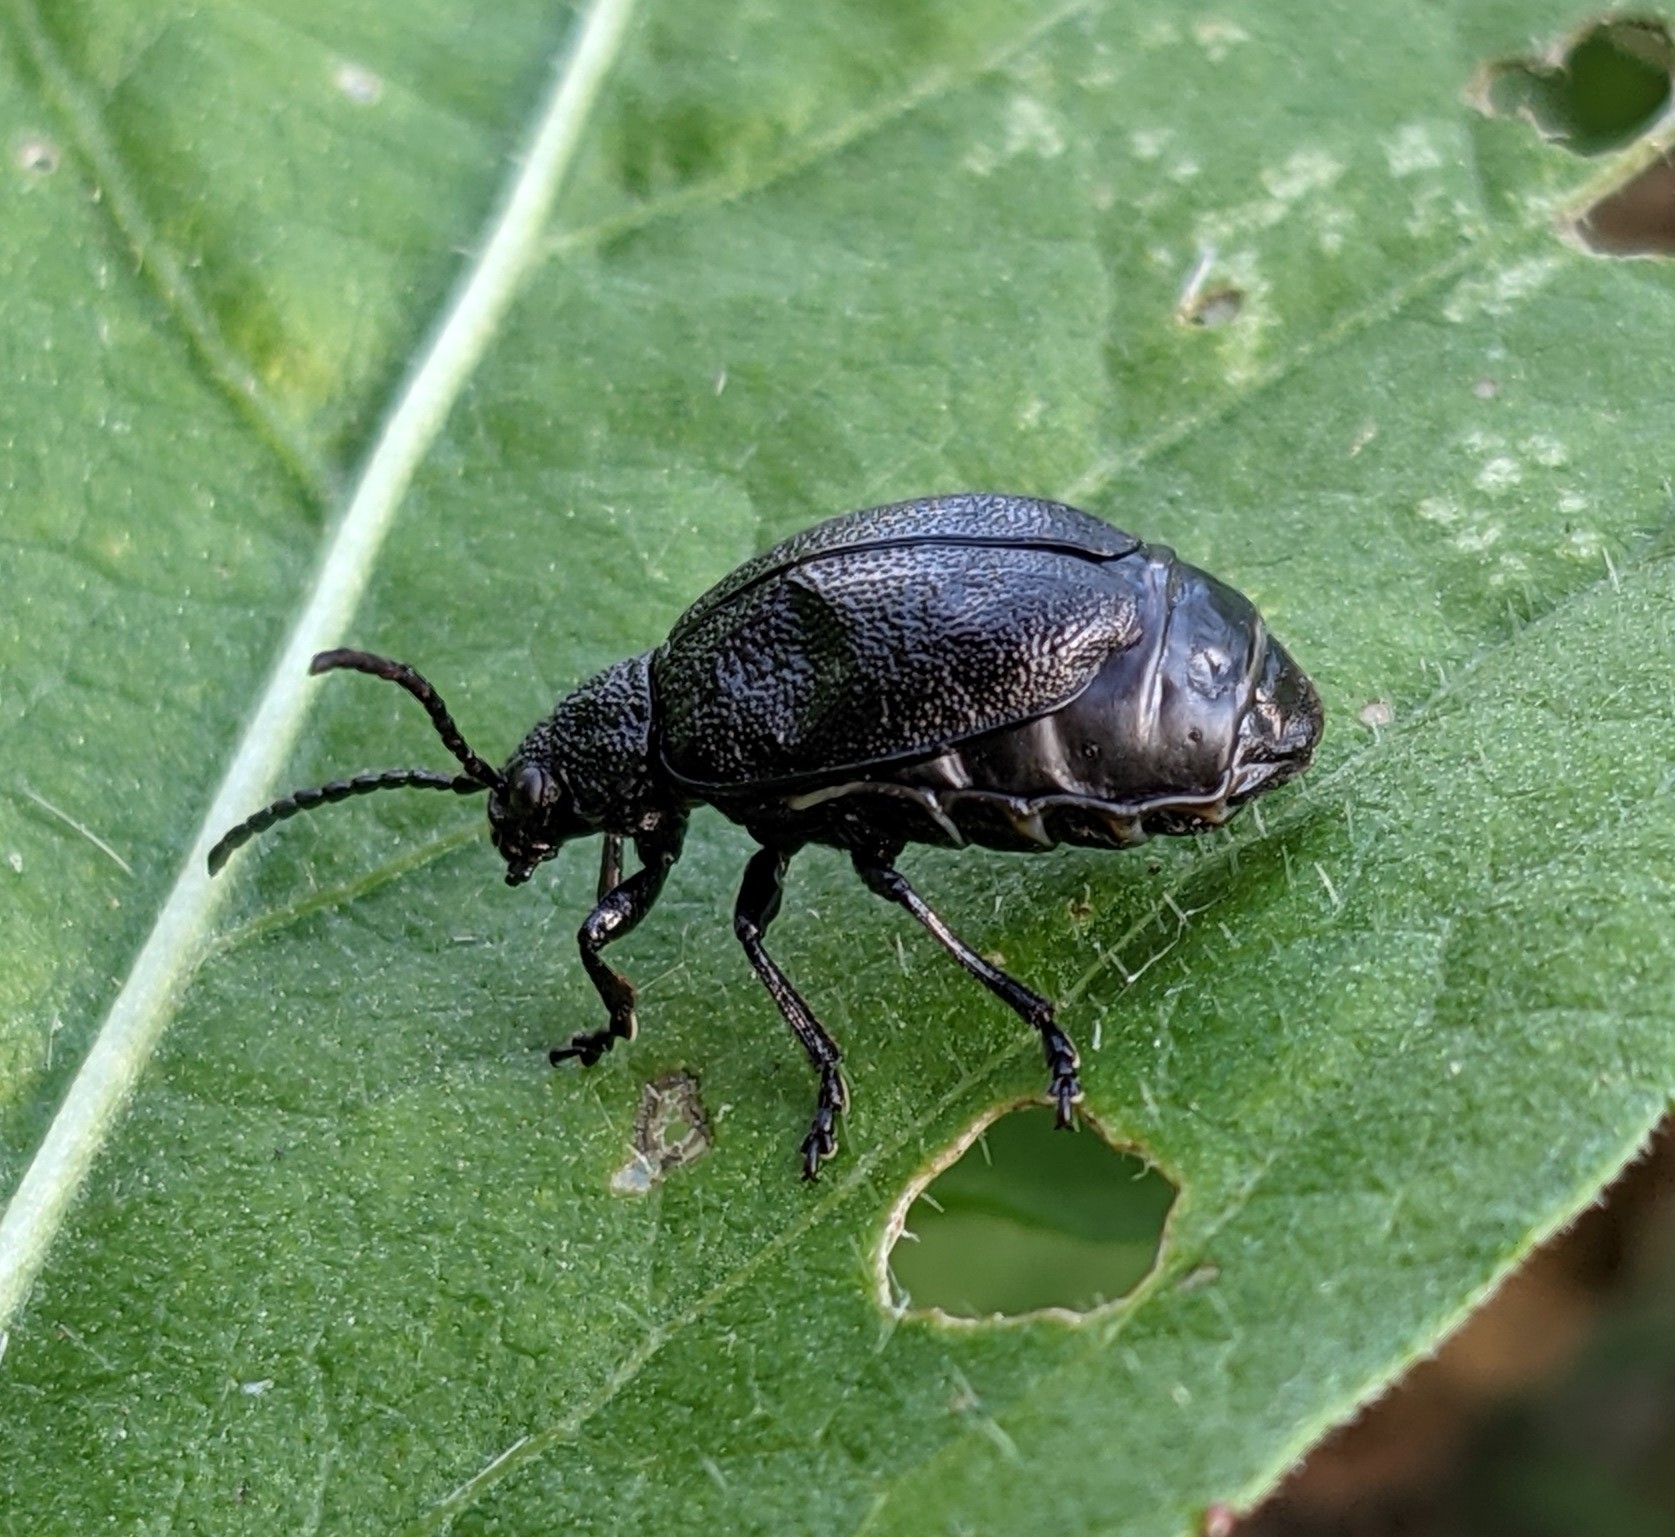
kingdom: Animalia
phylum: Arthropoda
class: Insecta
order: Coleoptera
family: Chrysomelidae
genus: Galeruca
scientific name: Galeruca tanaceti
